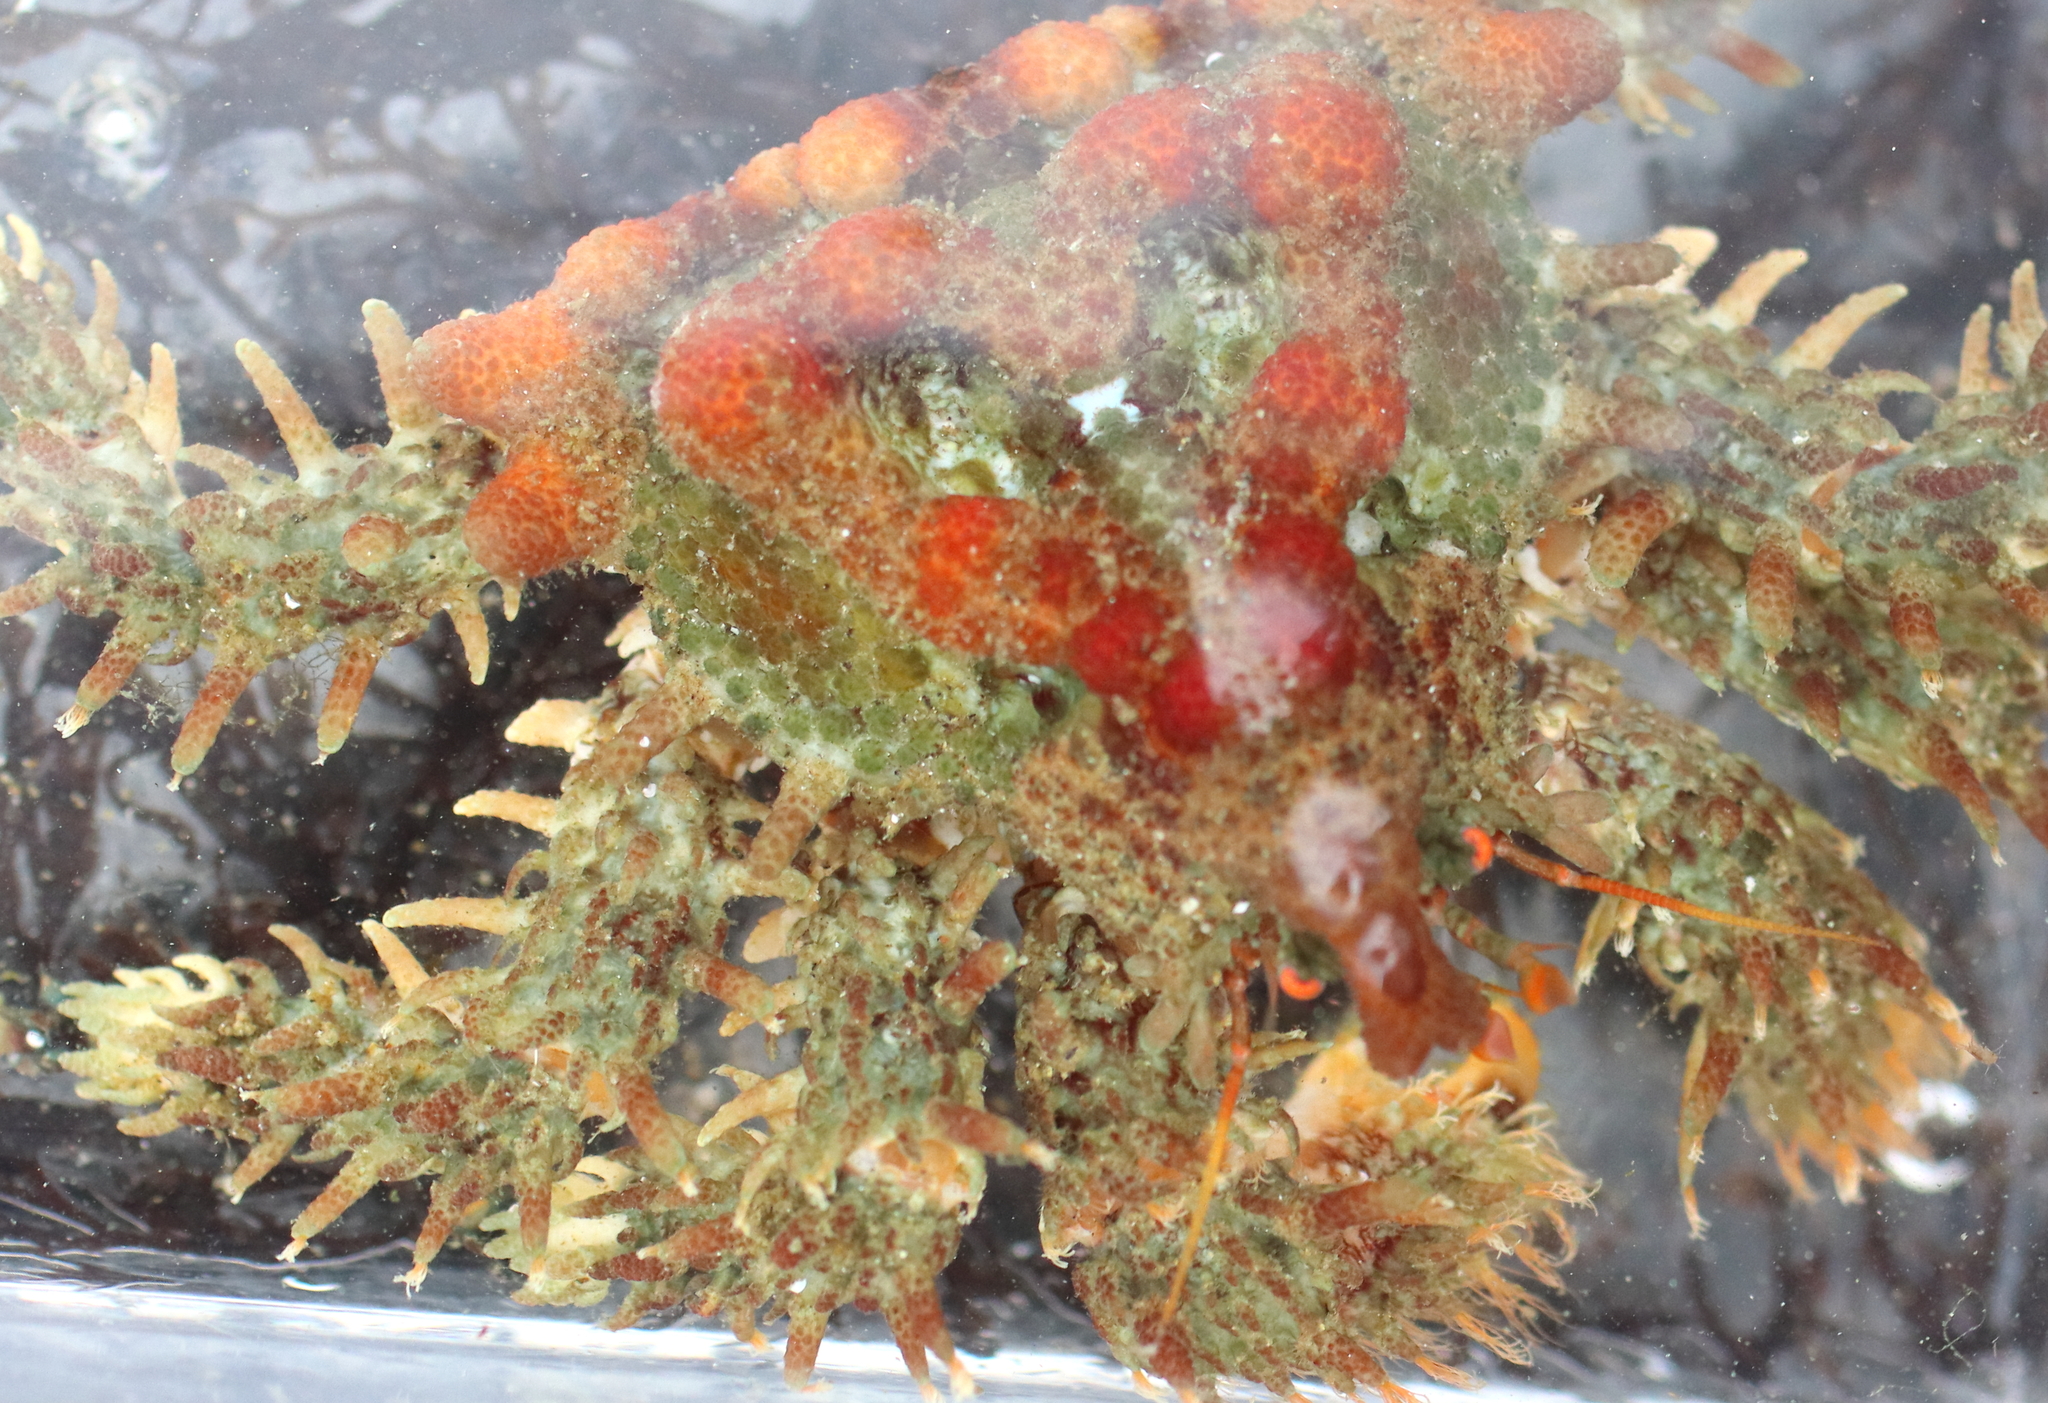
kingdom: Animalia
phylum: Arthropoda
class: Malacostraca
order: Decapoda
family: Lithodidae
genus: Phyllolithodes
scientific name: Phyllolithodes papillosus
